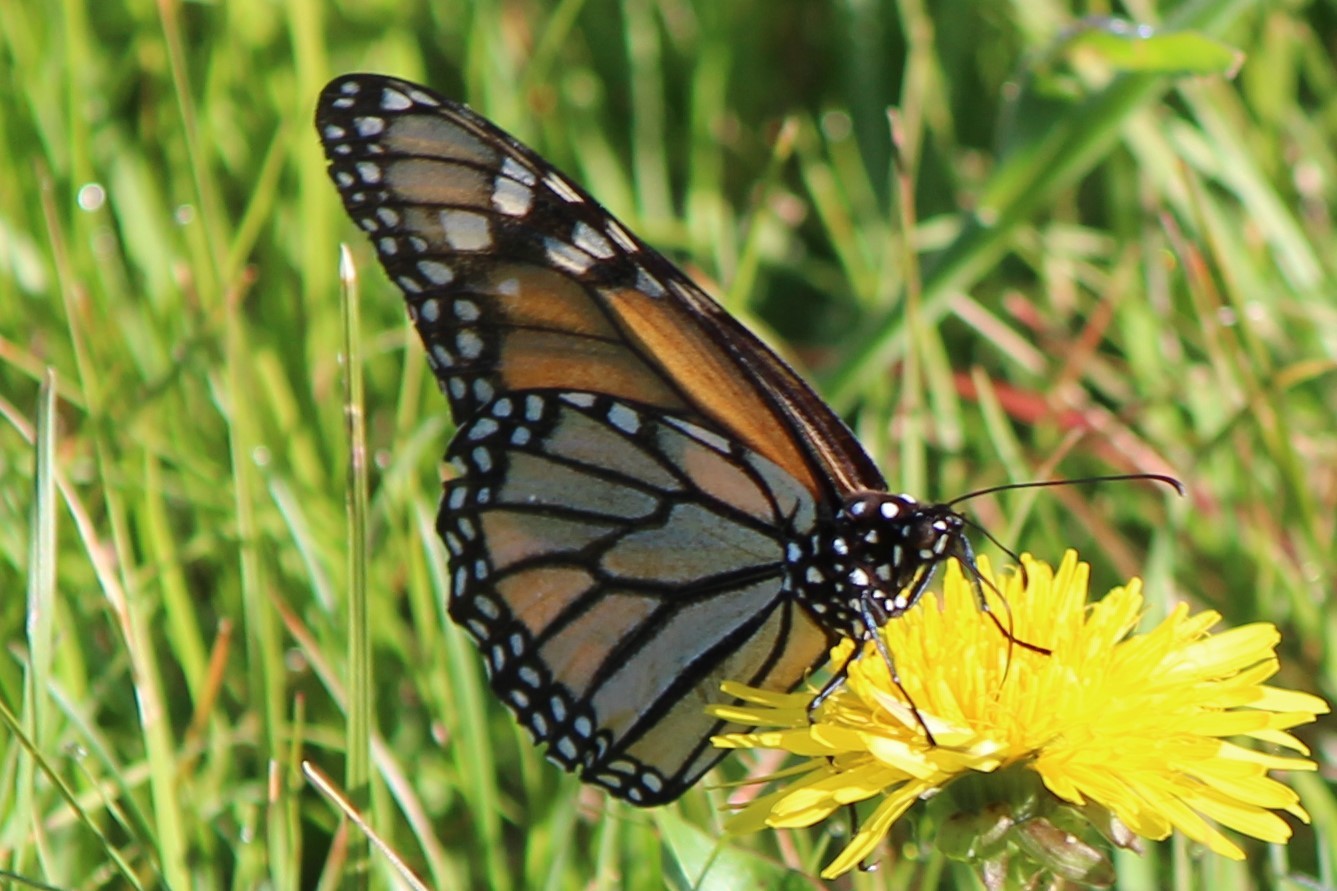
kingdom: Animalia
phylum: Arthropoda
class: Insecta
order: Lepidoptera
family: Nymphalidae
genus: Danaus
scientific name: Danaus plexippus
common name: Monarch
